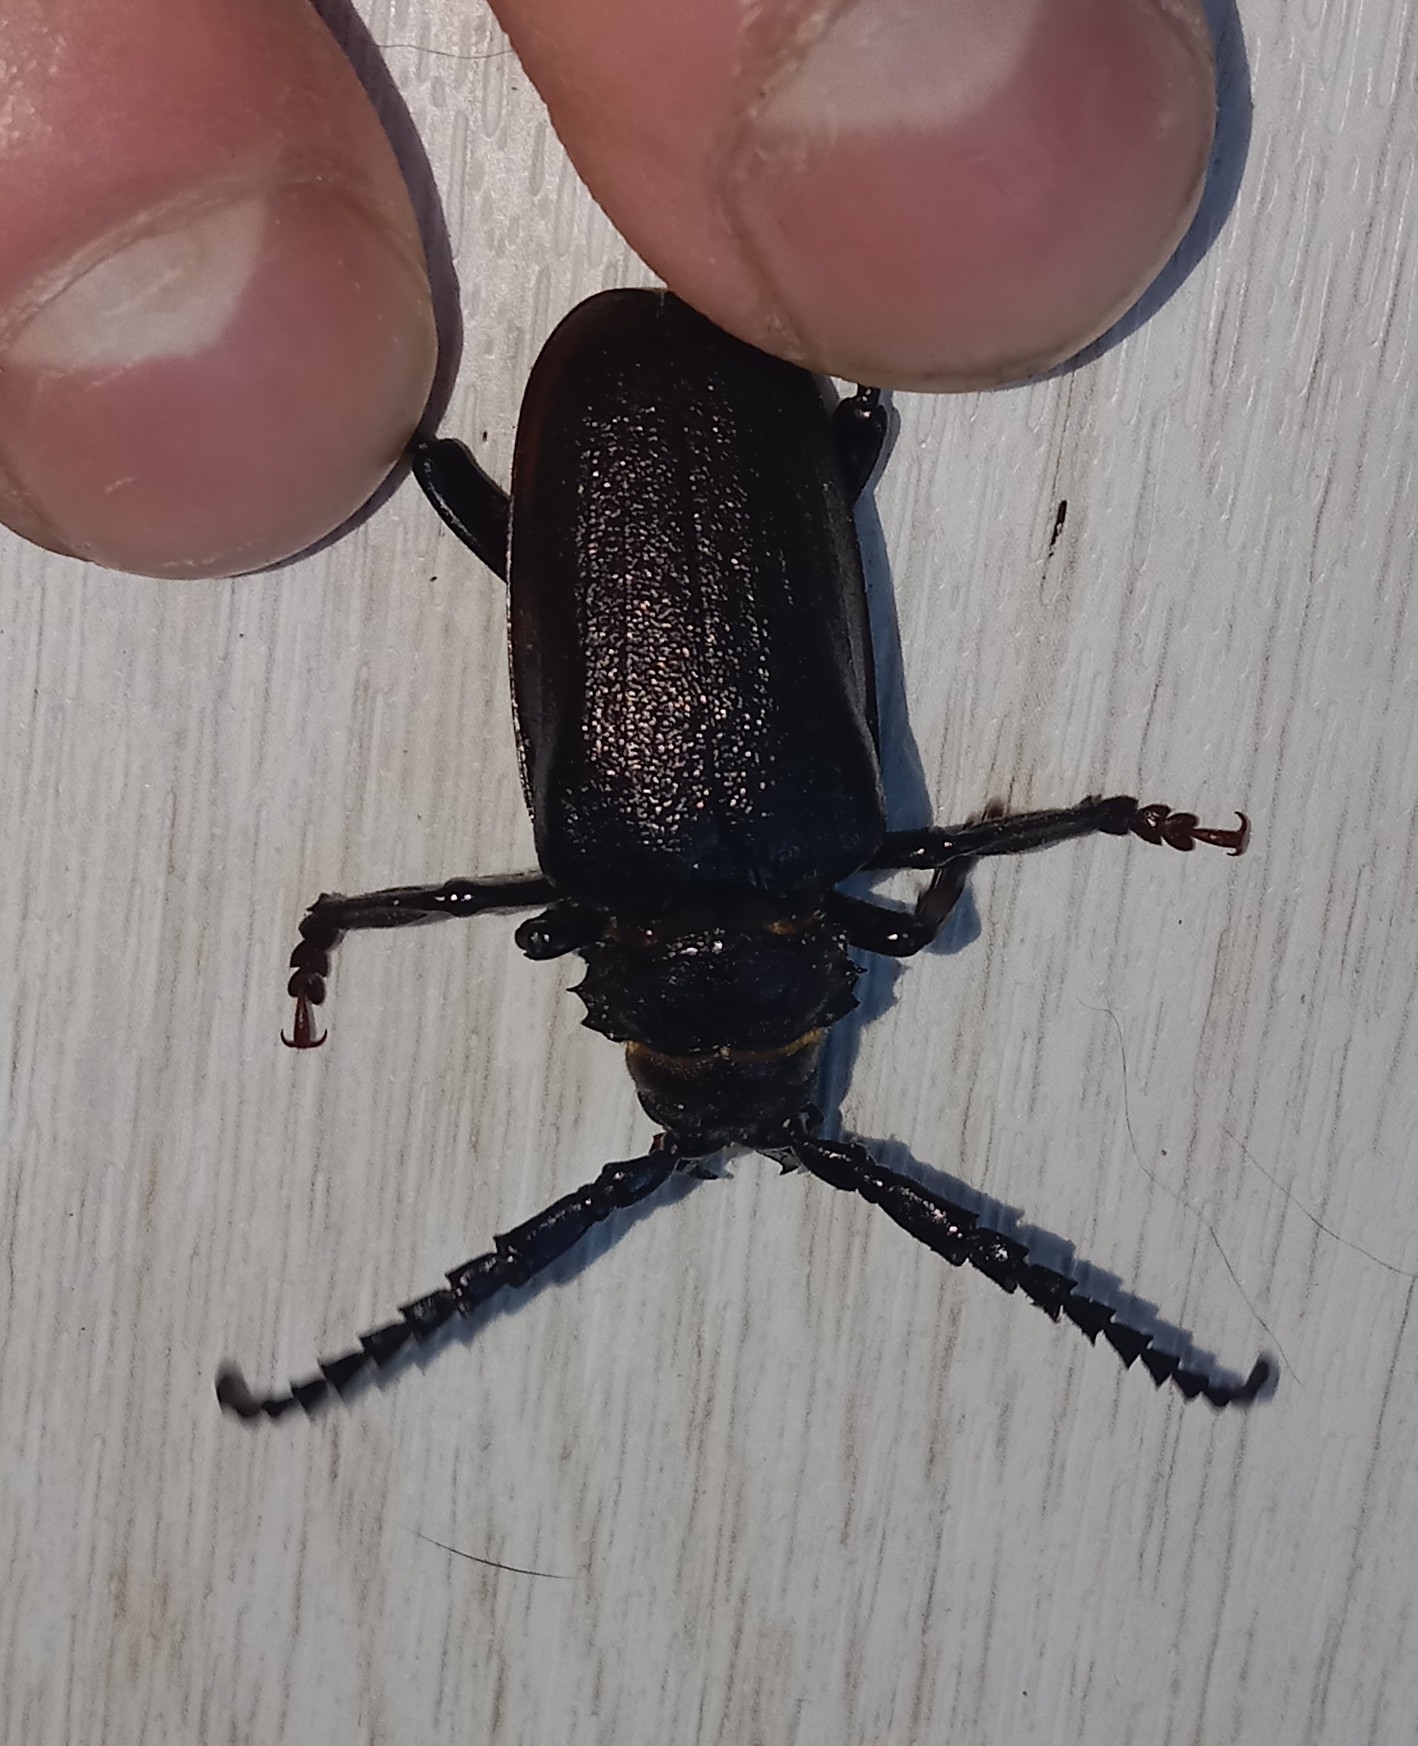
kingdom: Animalia
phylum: Arthropoda
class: Insecta
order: Coleoptera
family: Cerambycidae
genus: Prionus
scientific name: Prionus coriarius
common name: Tanner beetle
